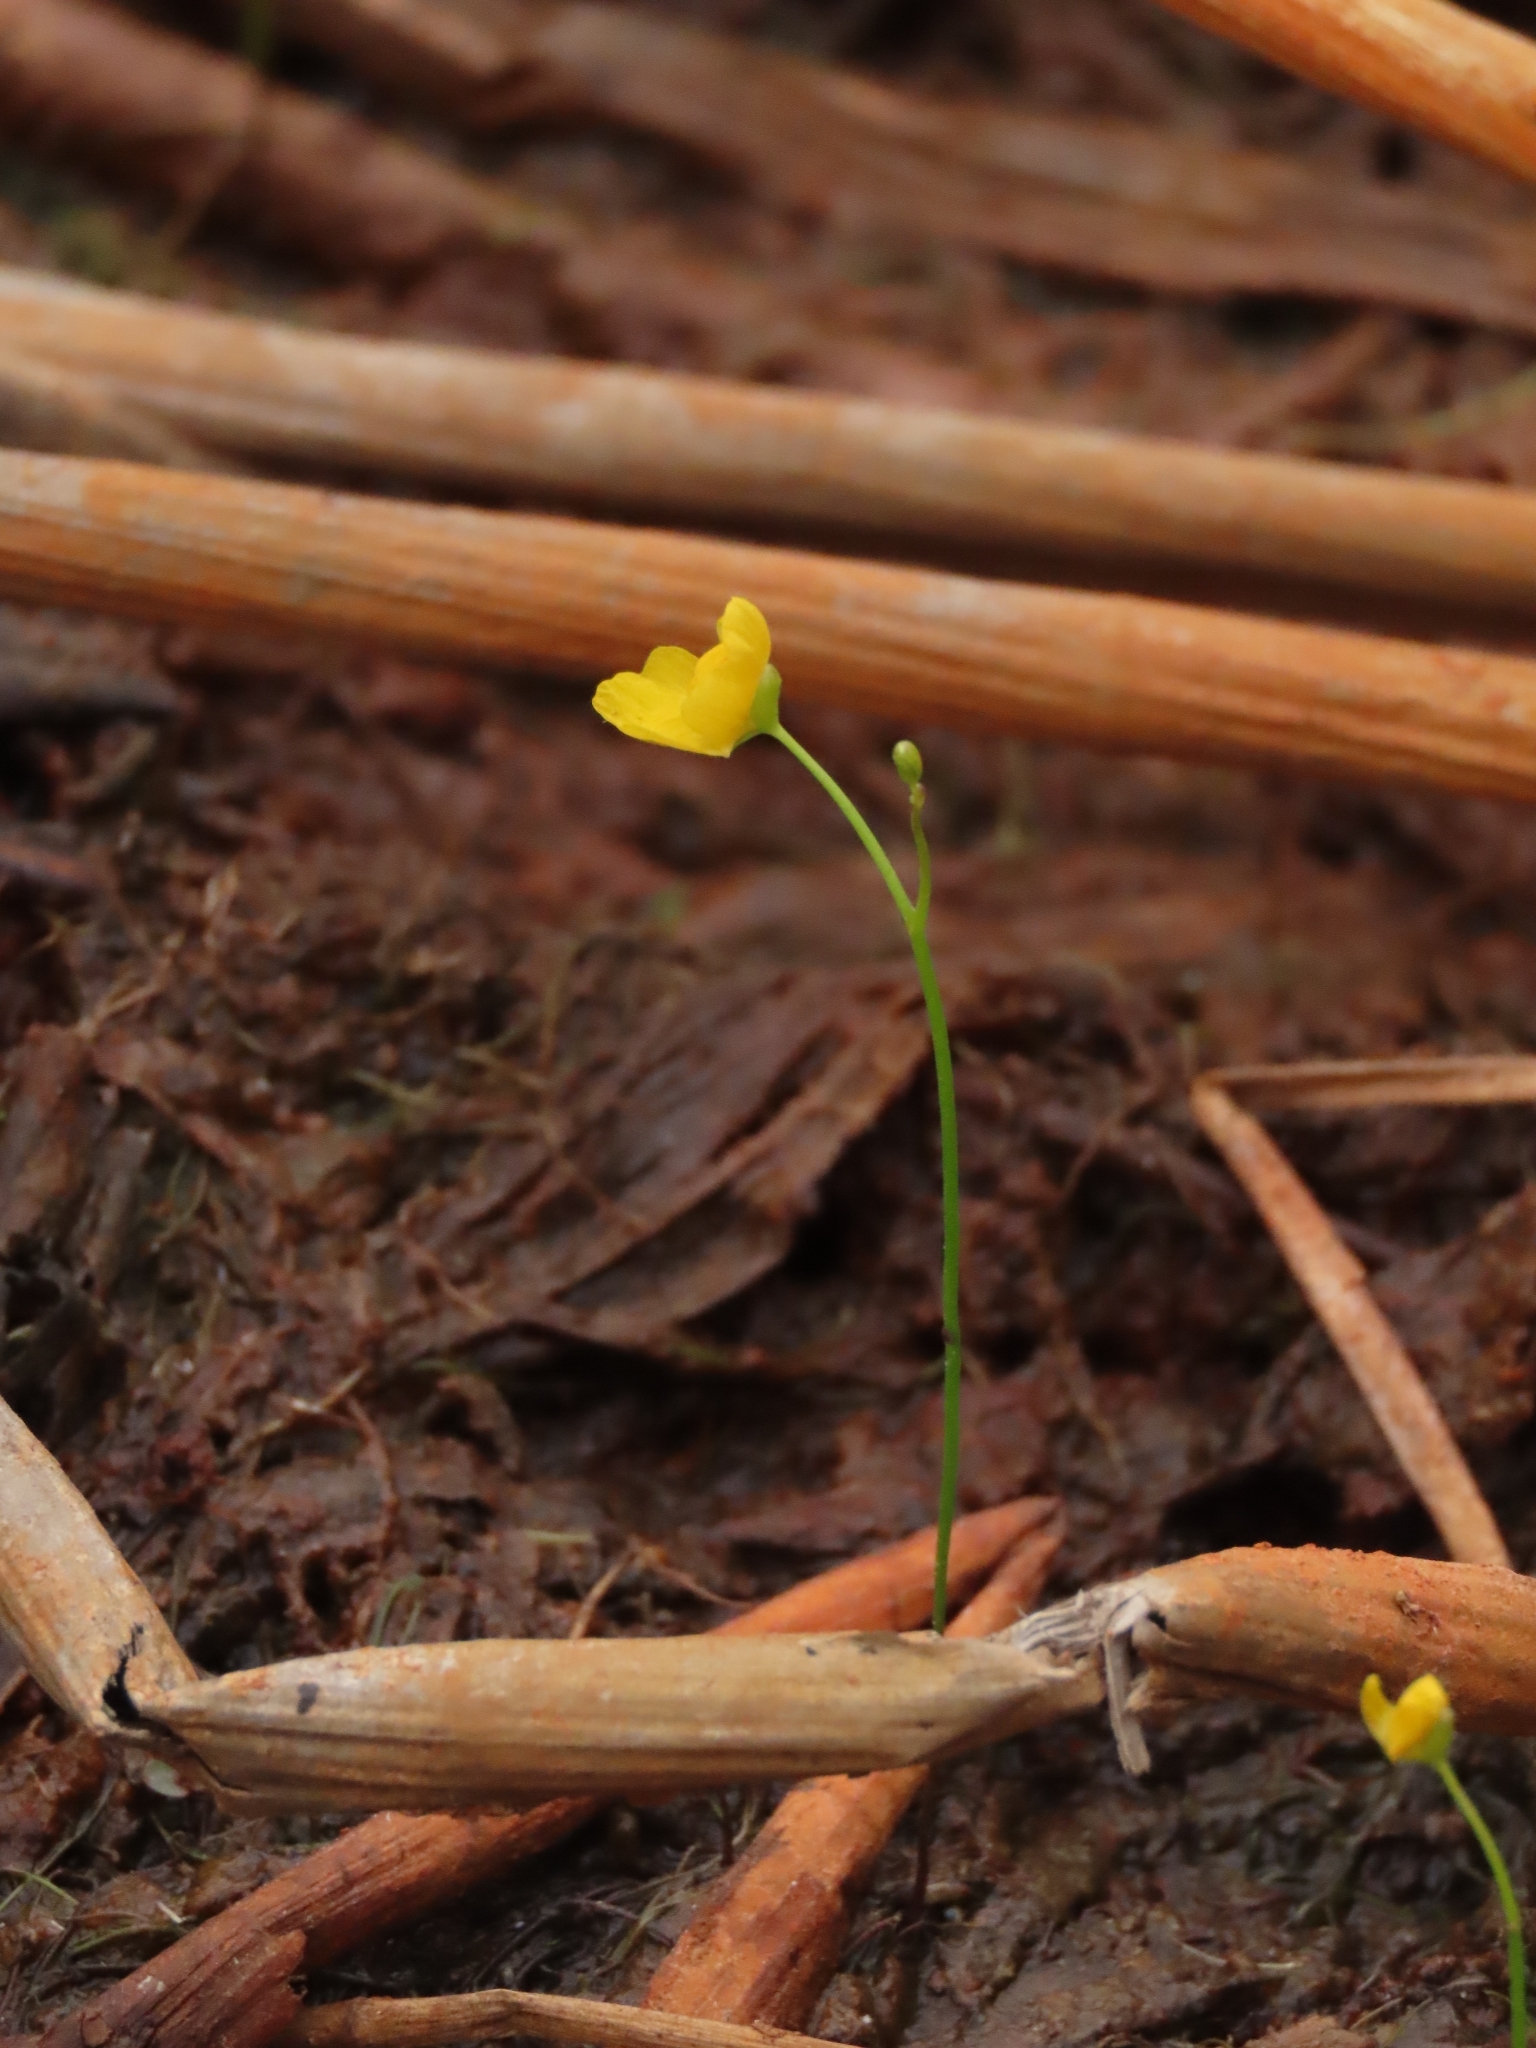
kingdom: Plantae
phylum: Tracheophyta
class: Magnoliopsida
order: Lamiales
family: Lentibulariaceae
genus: Utricularia
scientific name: Utricularia gibba
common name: Humped bladderwort
